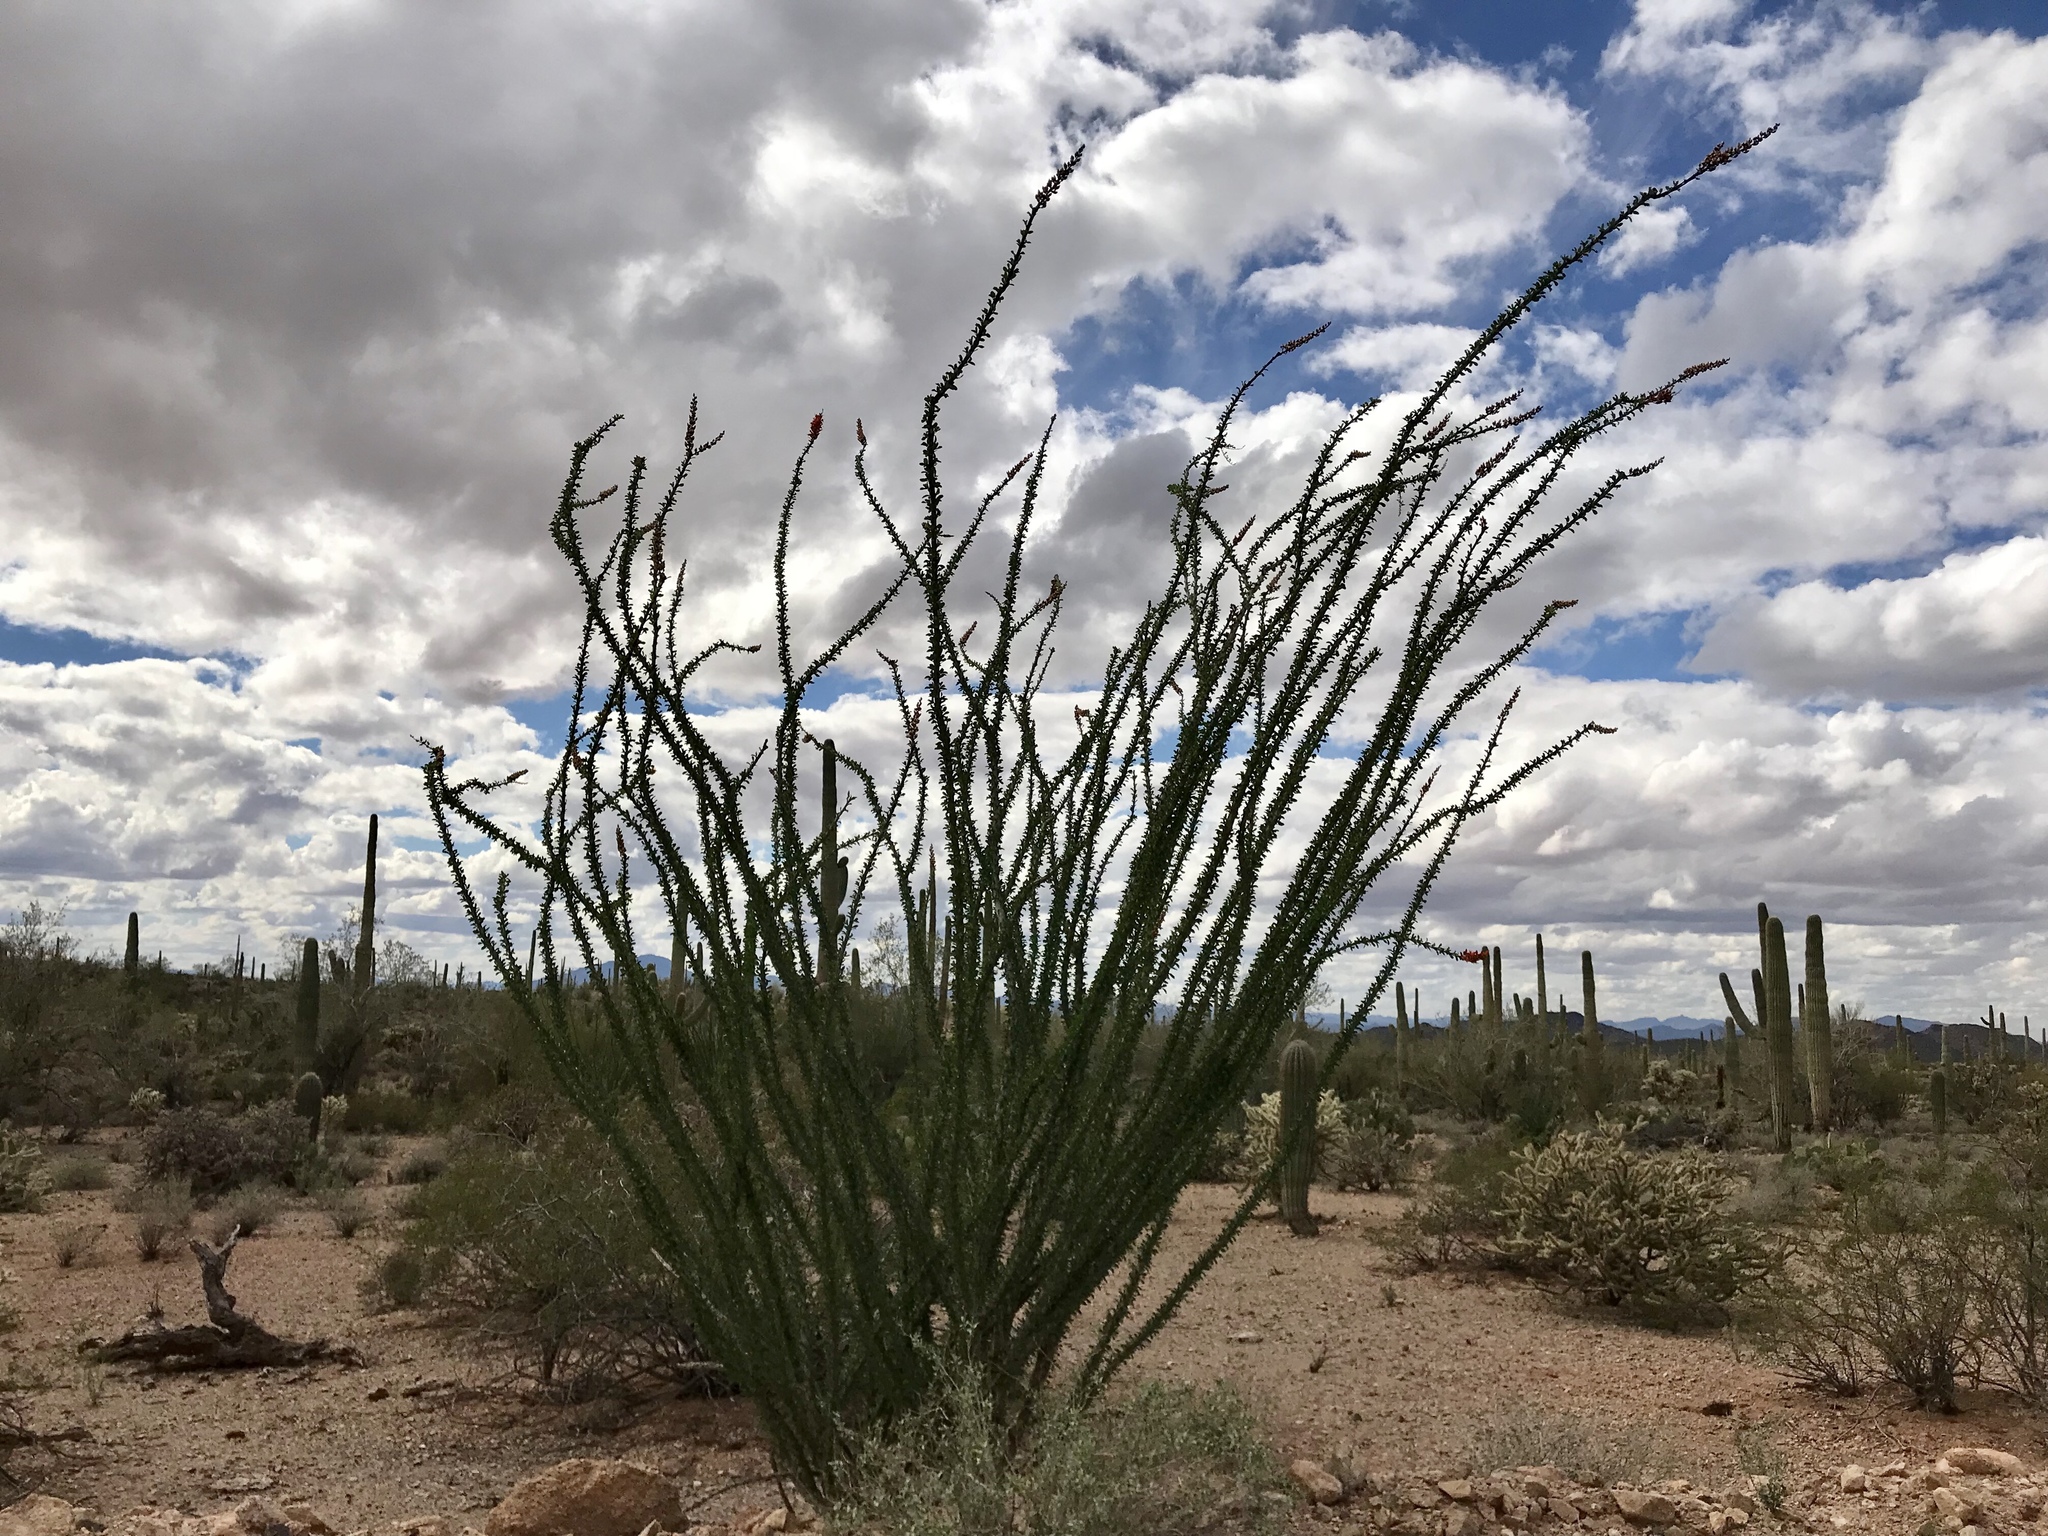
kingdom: Plantae
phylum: Tracheophyta
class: Magnoliopsida
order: Ericales
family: Fouquieriaceae
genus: Fouquieria
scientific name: Fouquieria splendens
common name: Vine-cactus
